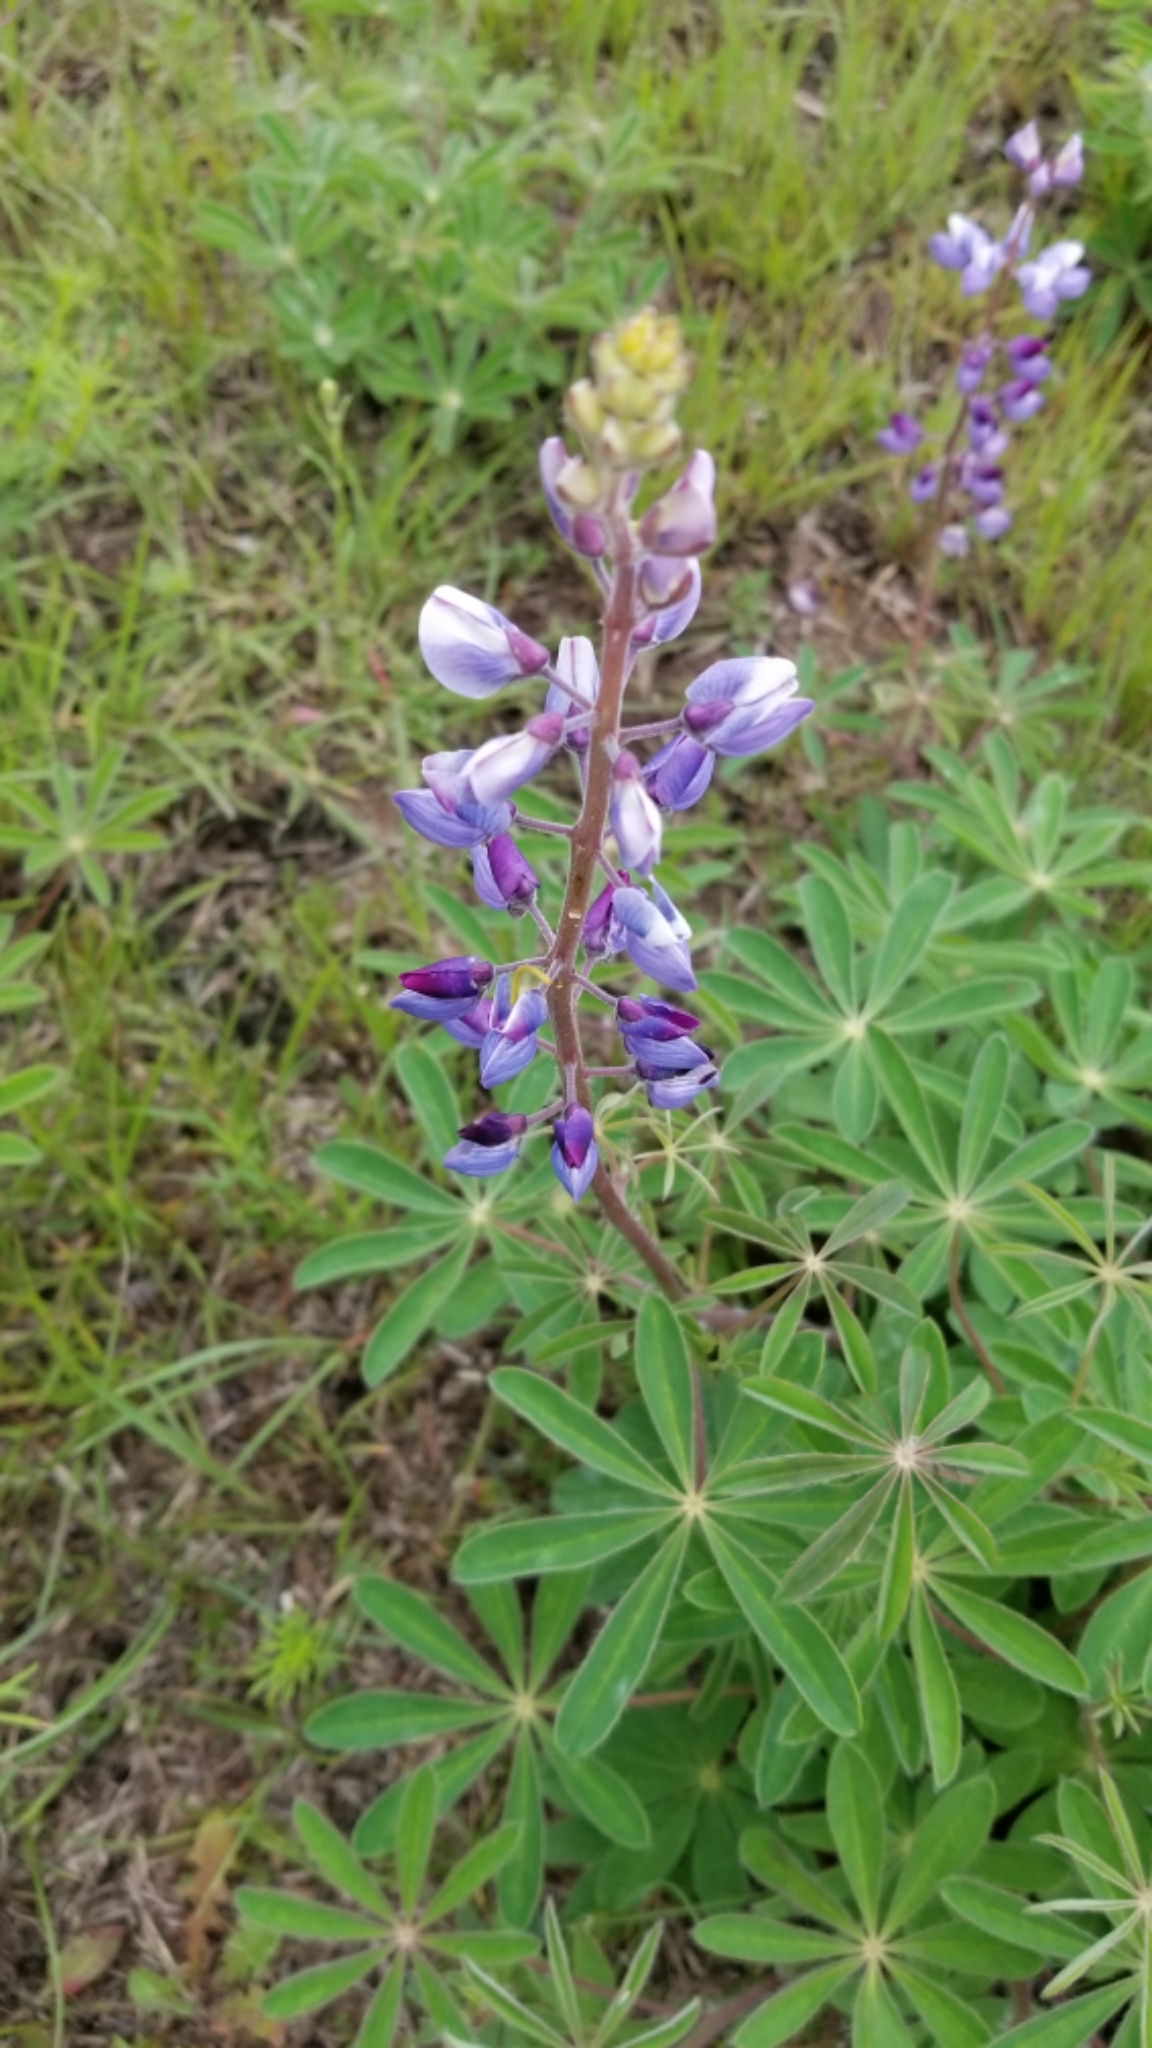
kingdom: Plantae
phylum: Tracheophyta
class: Magnoliopsida
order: Fabales
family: Fabaceae
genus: Lupinus
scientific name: Lupinus perennis
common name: Sundial lupine
